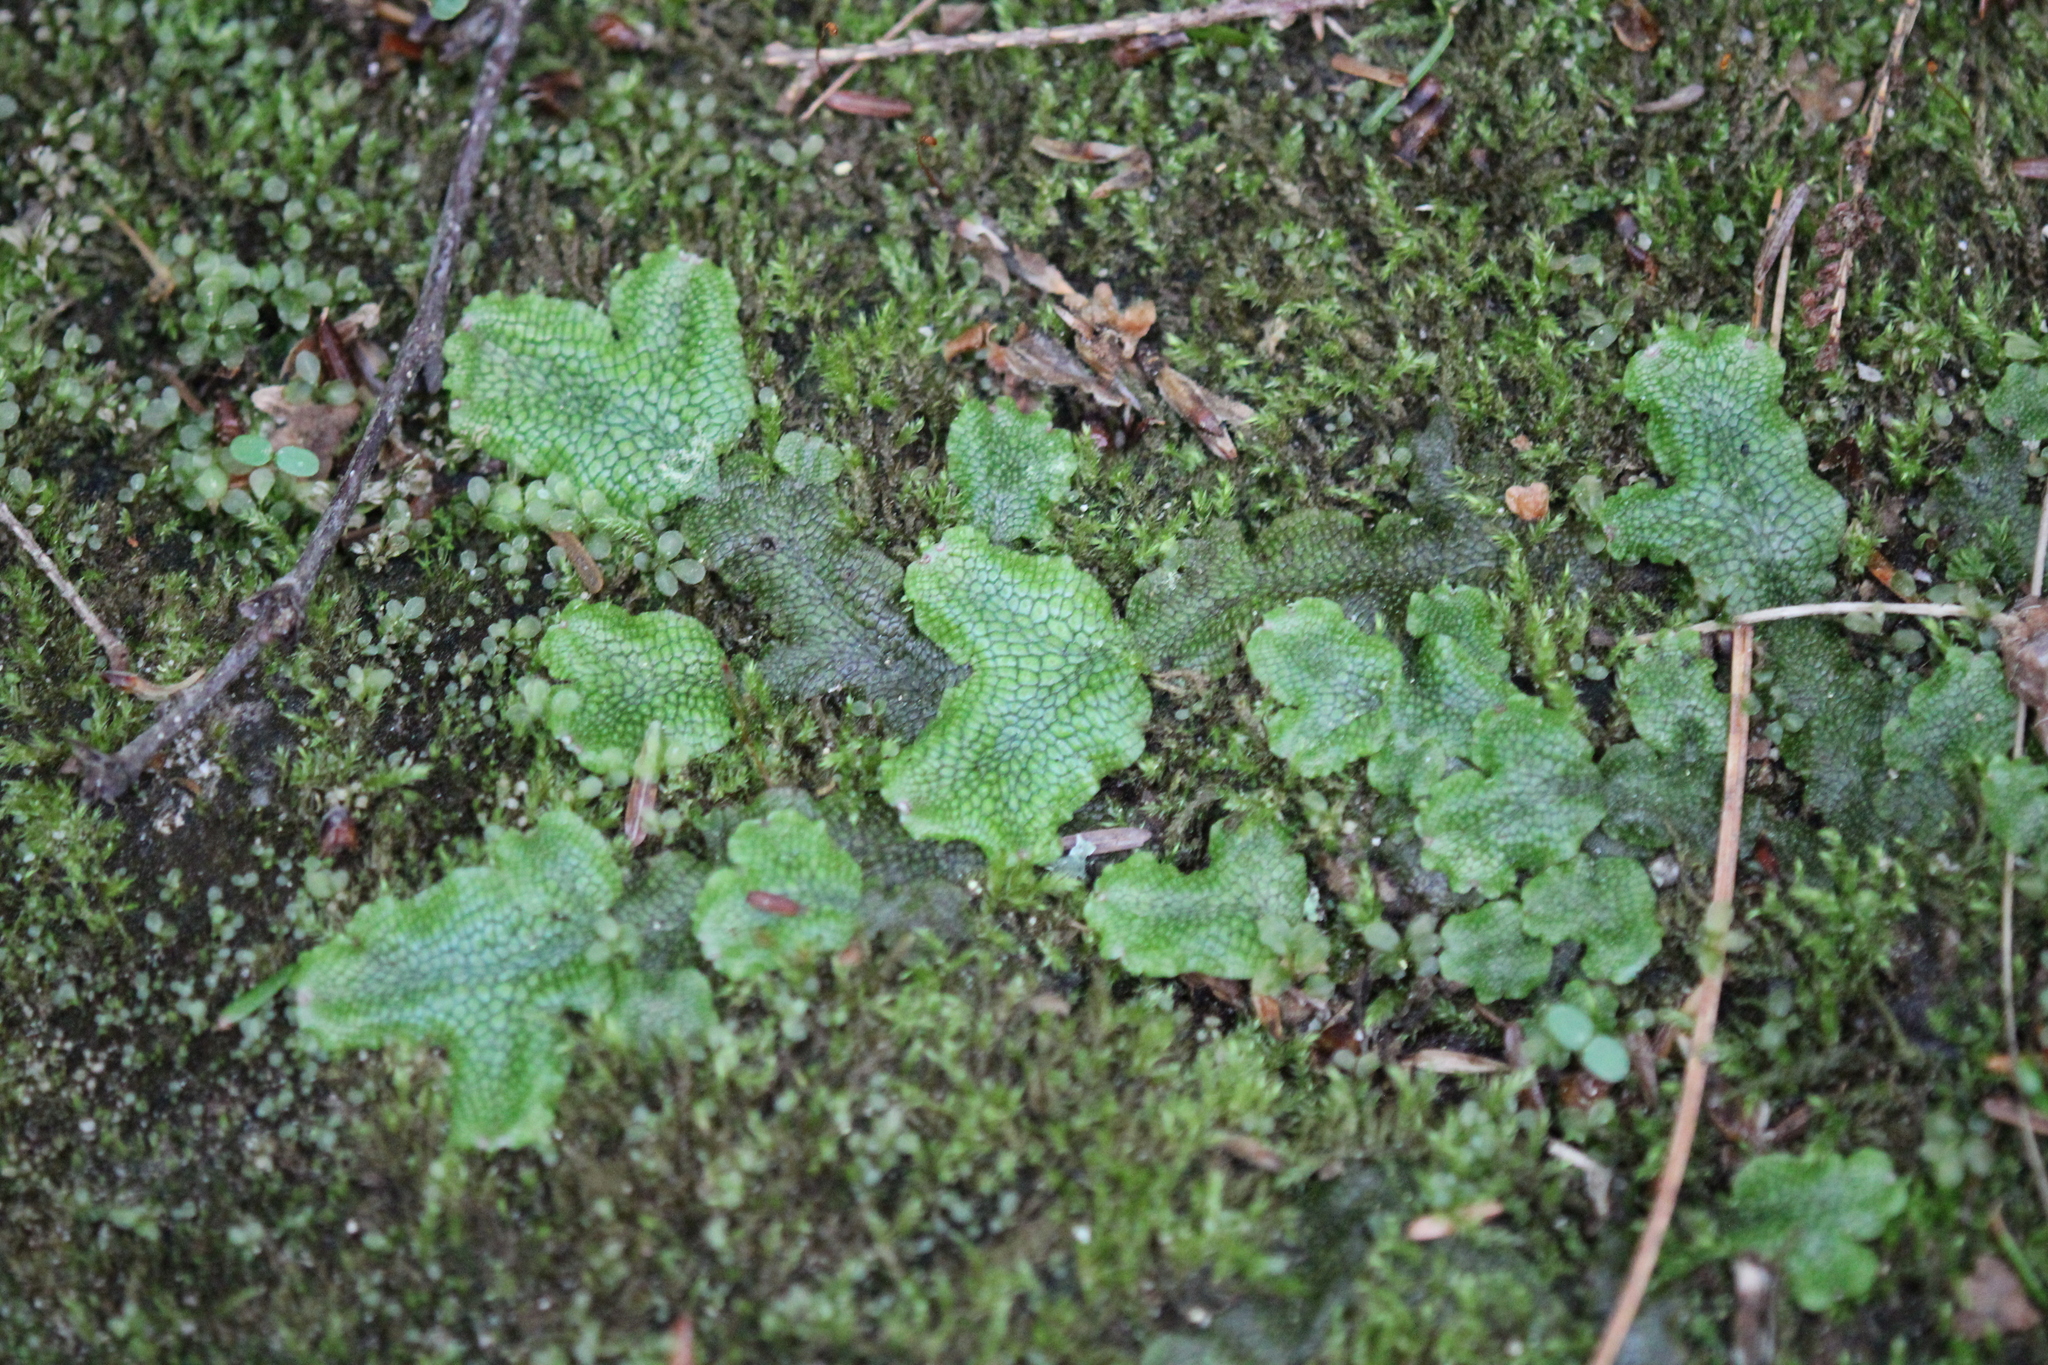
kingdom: Plantae
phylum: Marchantiophyta
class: Marchantiopsida
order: Marchantiales
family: Conocephalaceae
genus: Conocephalum
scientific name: Conocephalum salebrosum
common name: Cat-tongue liverwort
